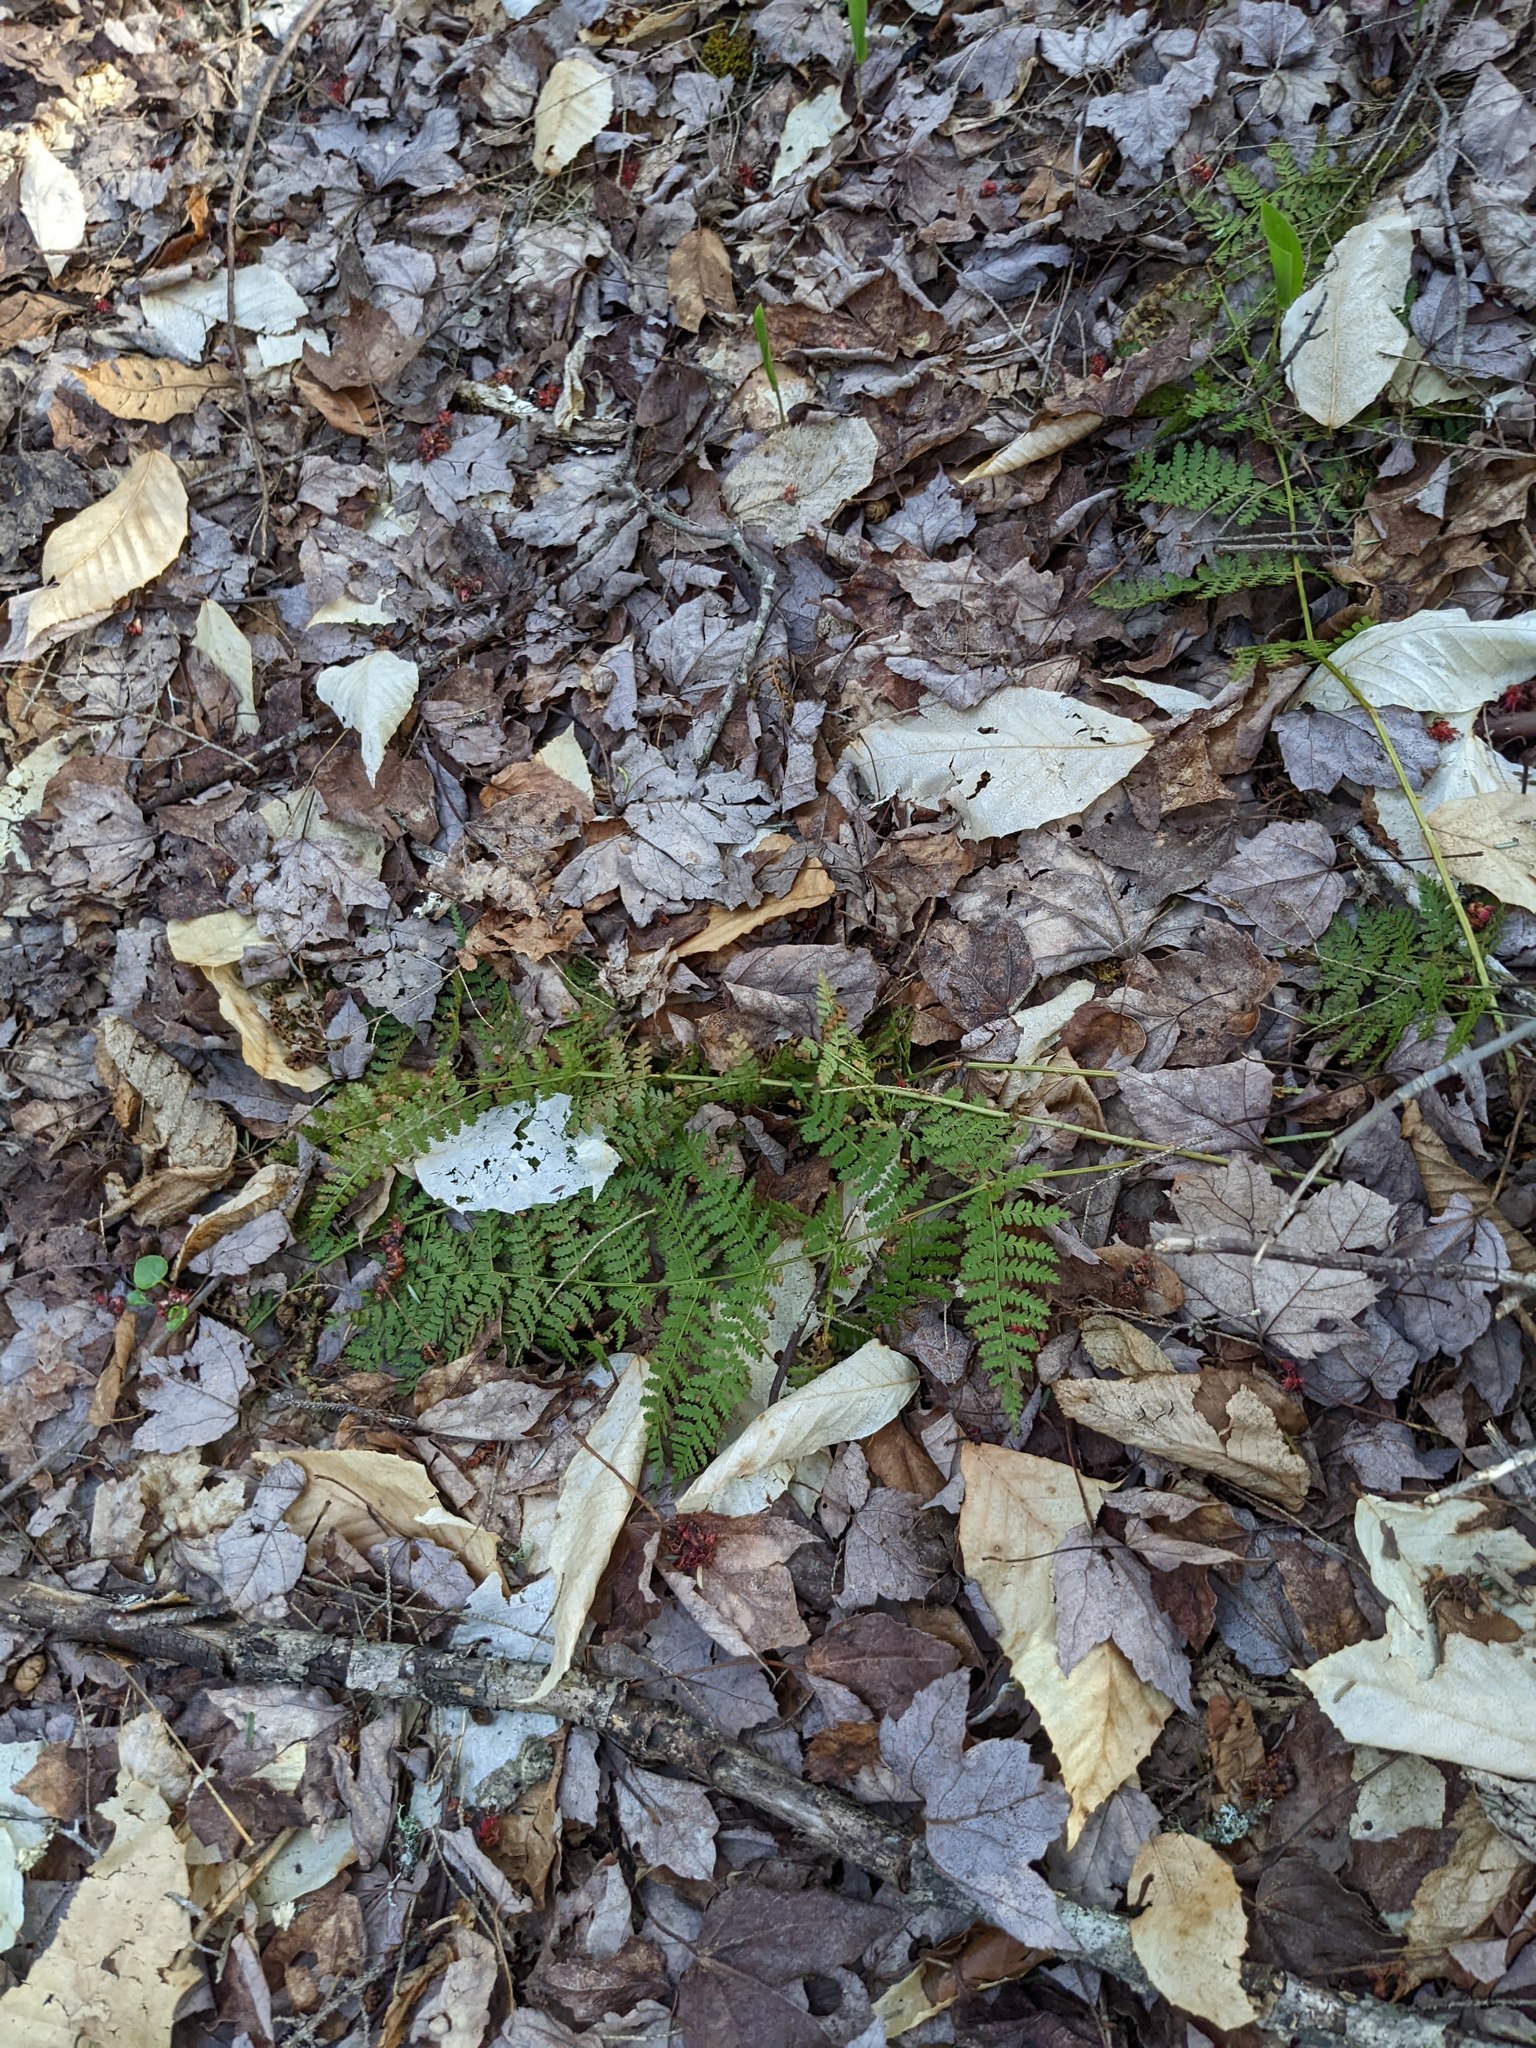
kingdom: Plantae
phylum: Tracheophyta
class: Polypodiopsida
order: Polypodiales
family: Dryopteridaceae
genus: Dryopteris
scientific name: Dryopteris intermedia
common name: Evergreen wood fern
